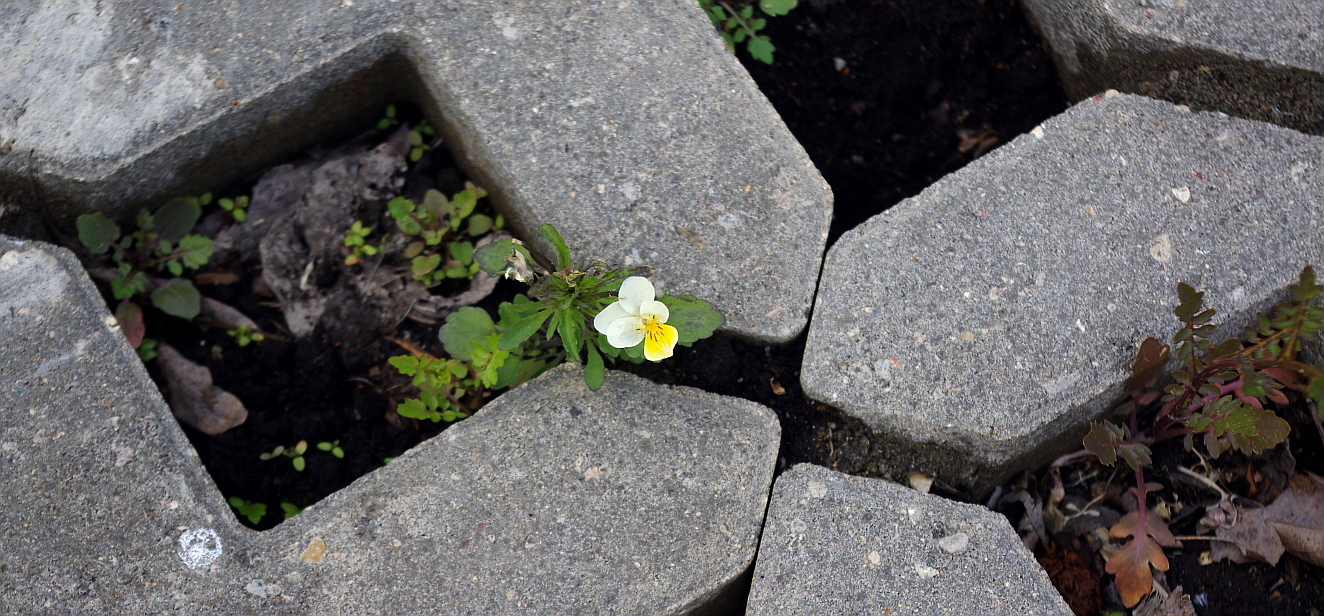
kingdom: Plantae
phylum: Tracheophyta
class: Magnoliopsida
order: Malpighiales
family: Violaceae
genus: Viola
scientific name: Viola arvensis
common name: Field pansy
